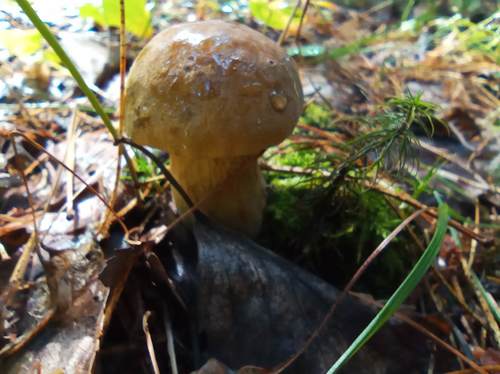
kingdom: Fungi
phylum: Basidiomycota
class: Agaricomycetes
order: Boletales
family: Boletaceae
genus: Xerocomus
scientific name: Xerocomus subtomentosus
